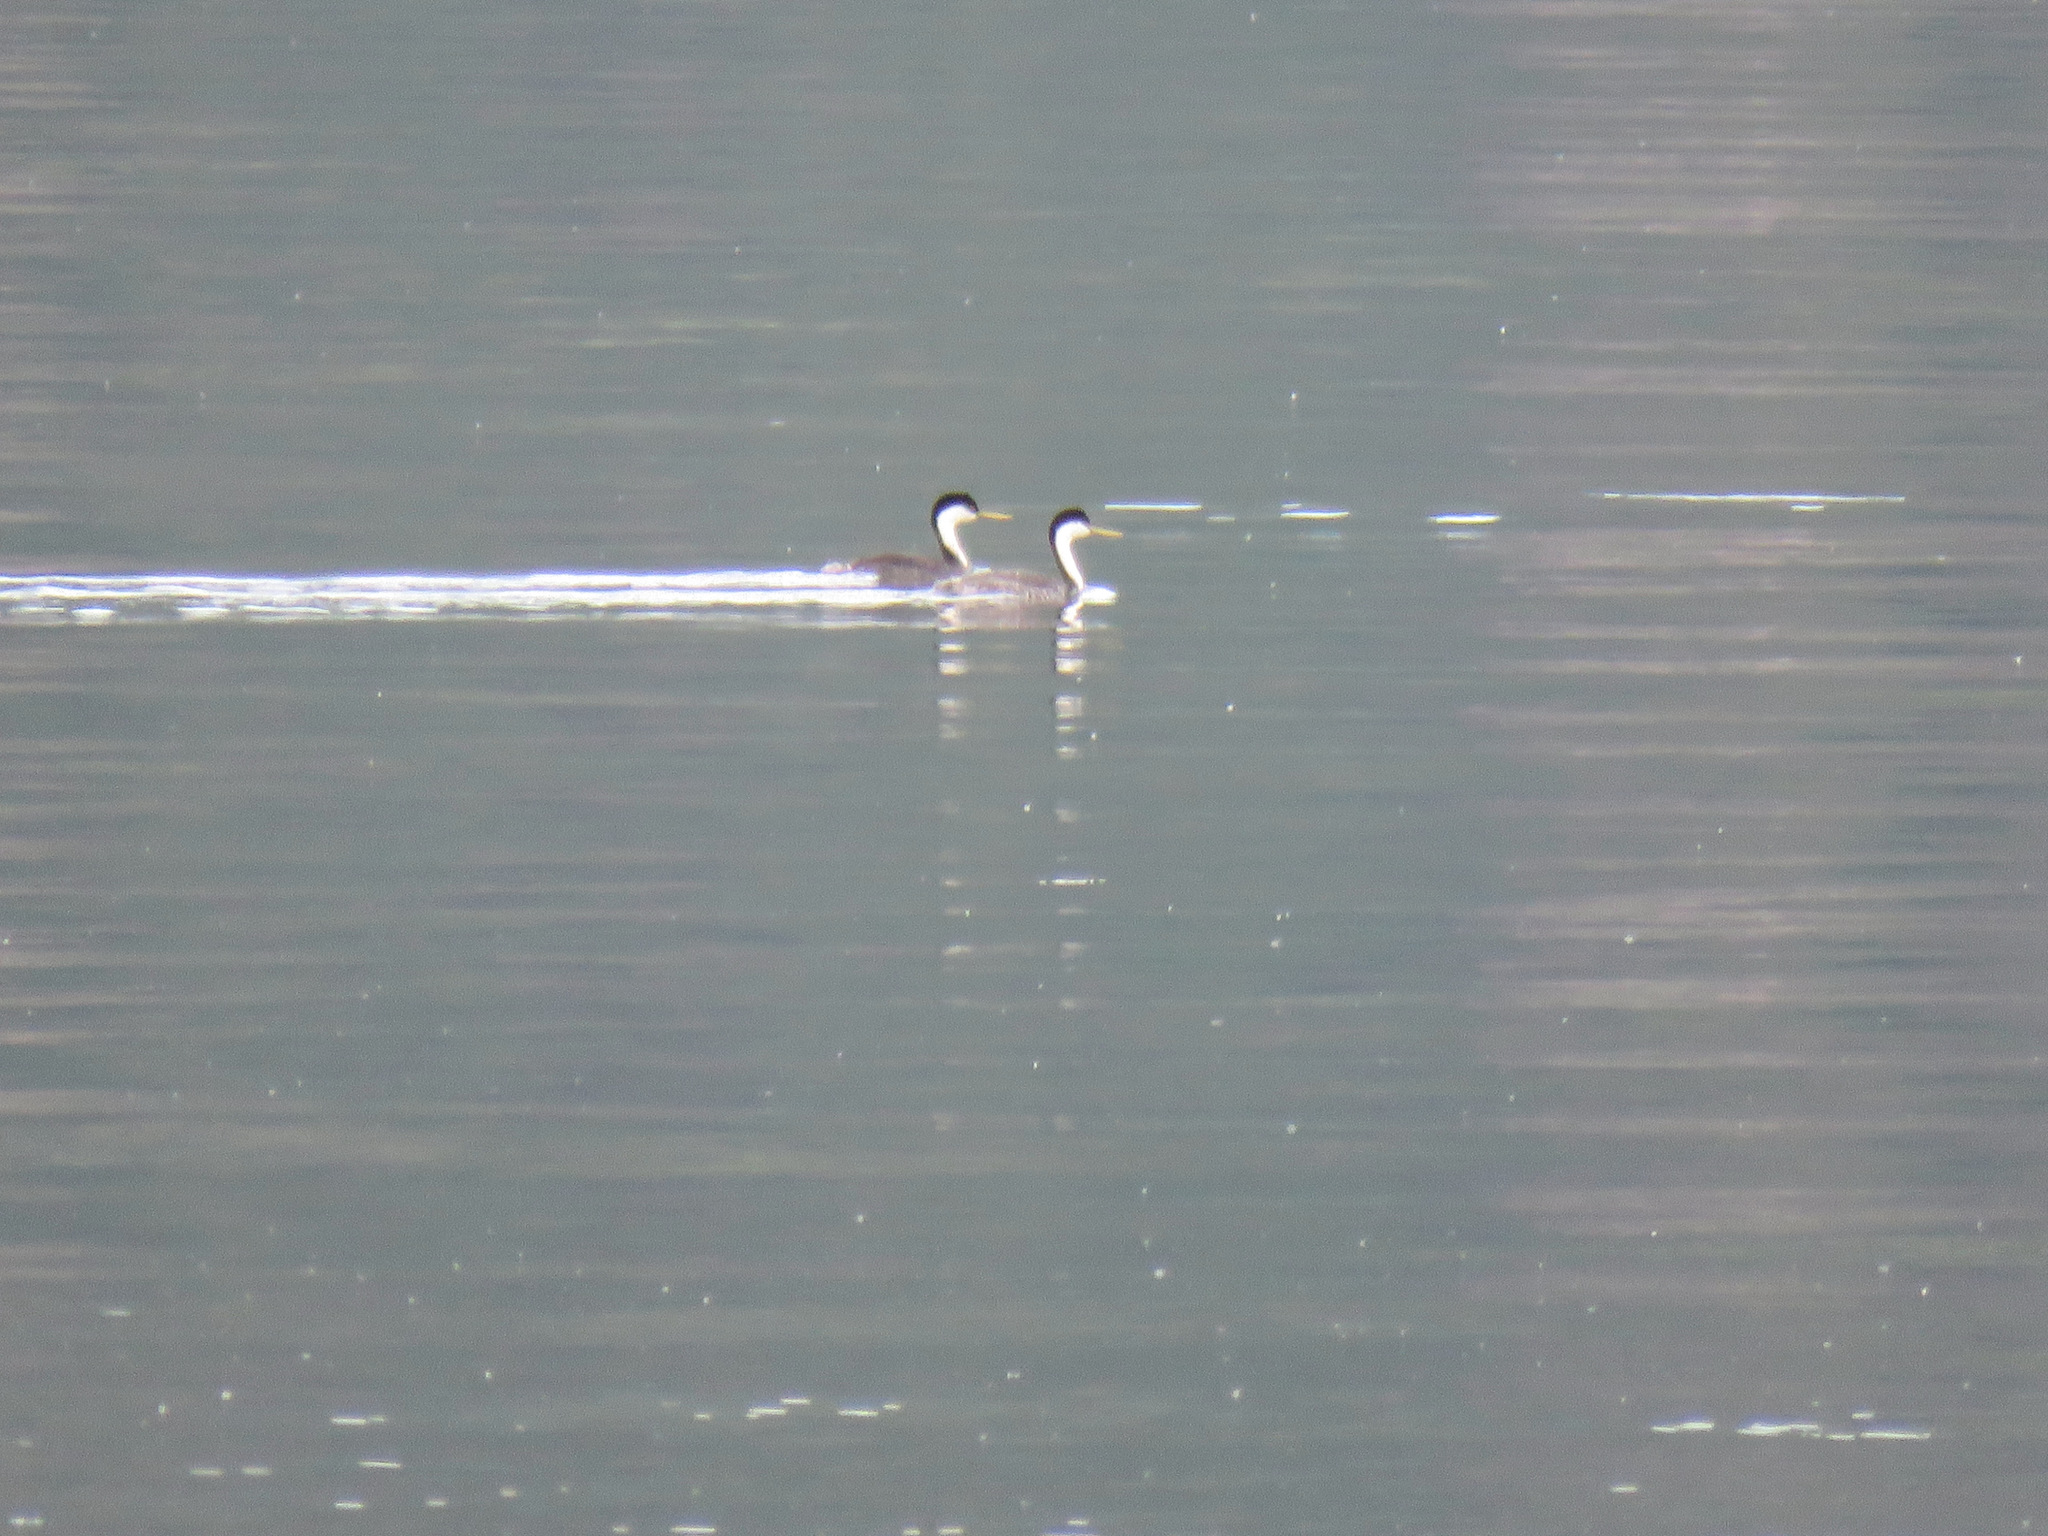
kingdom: Animalia
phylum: Chordata
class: Aves
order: Podicipediformes
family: Podicipedidae
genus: Aechmophorus
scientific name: Aechmophorus occidentalis
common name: Western grebe
